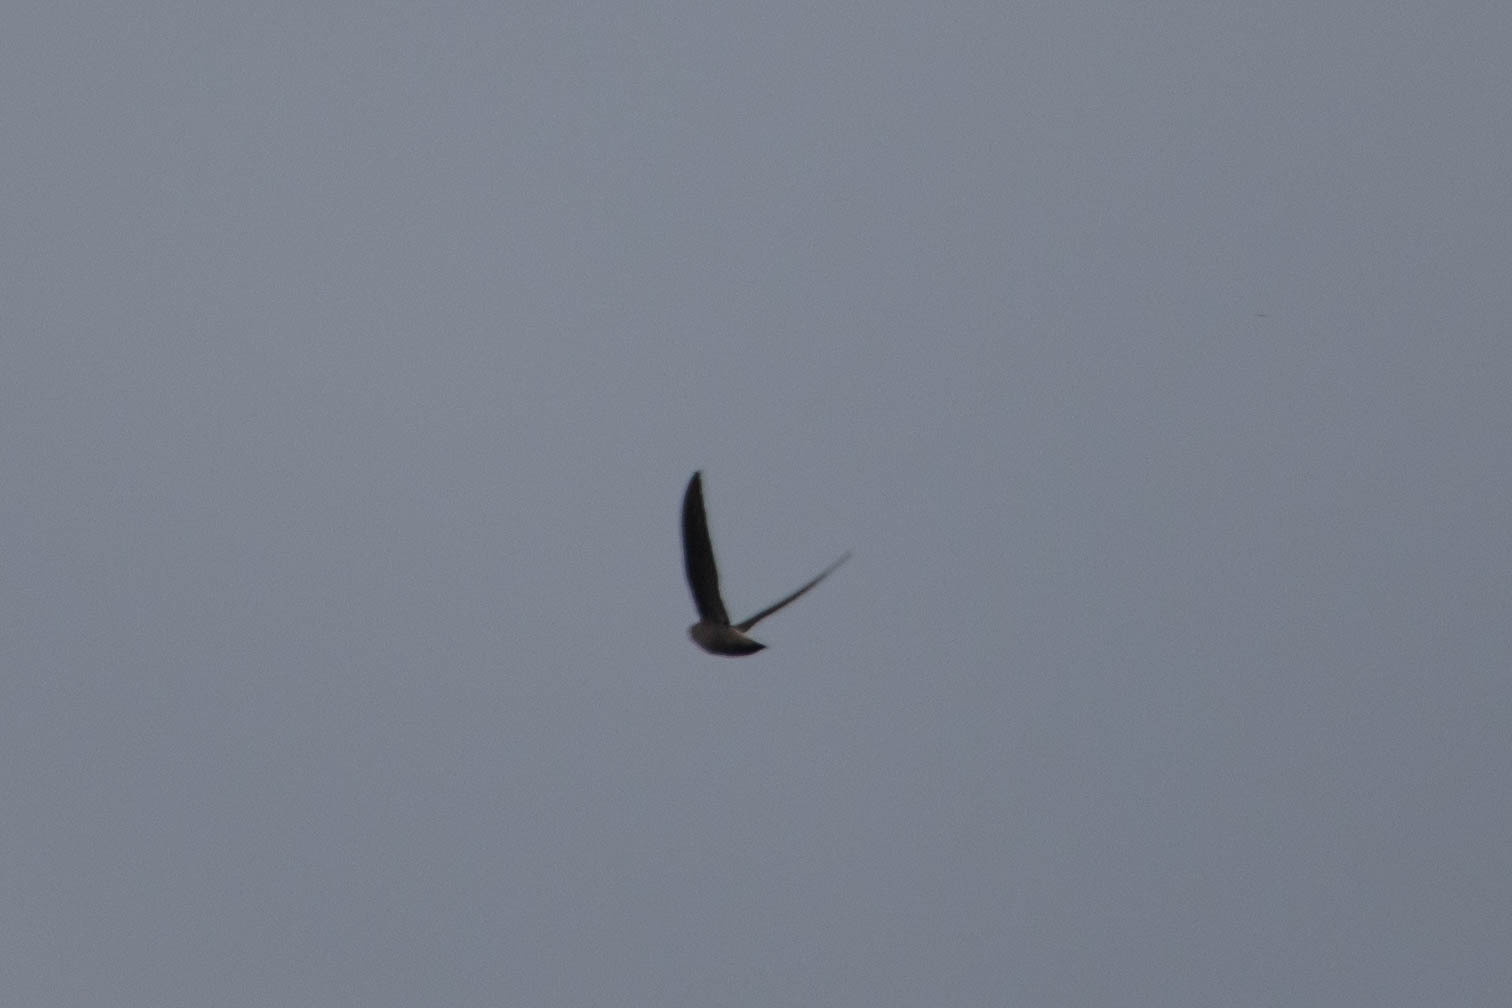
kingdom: Animalia
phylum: Chordata
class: Aves
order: Apodiformes
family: Apodidae
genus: Chaetura
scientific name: Chaetura pelagica
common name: Chimney swift
